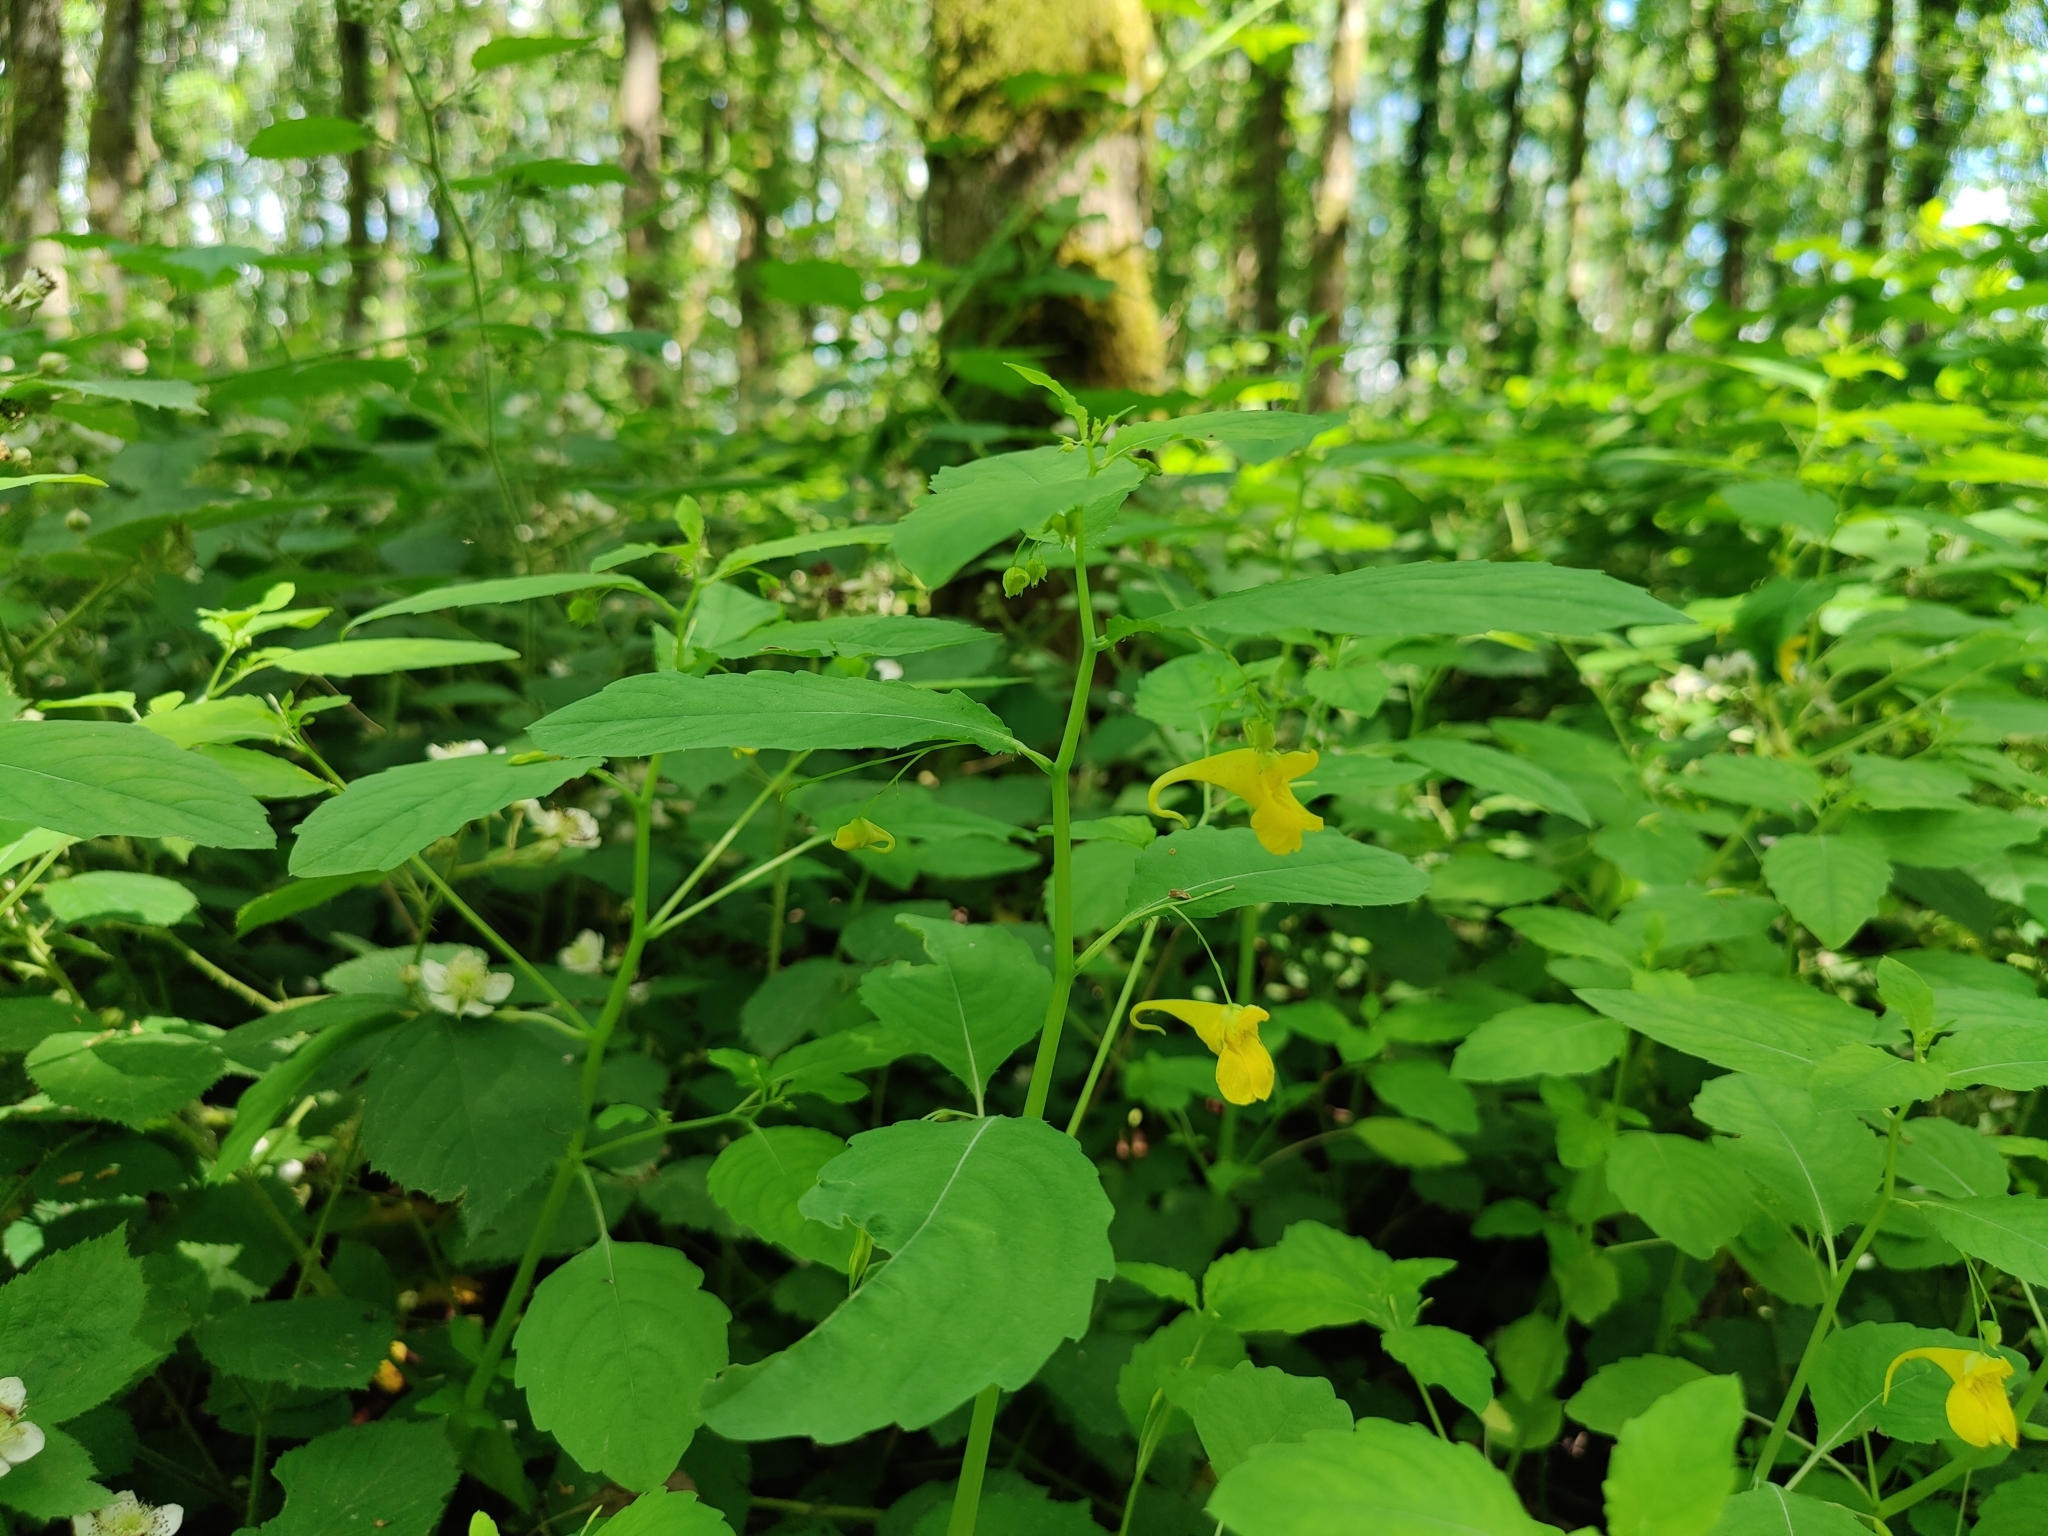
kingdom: Plantae
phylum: Tracheophyta
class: Magnoliopsida
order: Ericales
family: Balsaminaceae
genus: Impatiens
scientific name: Impatiens noli-tangere
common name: Touch-me-not balsam
